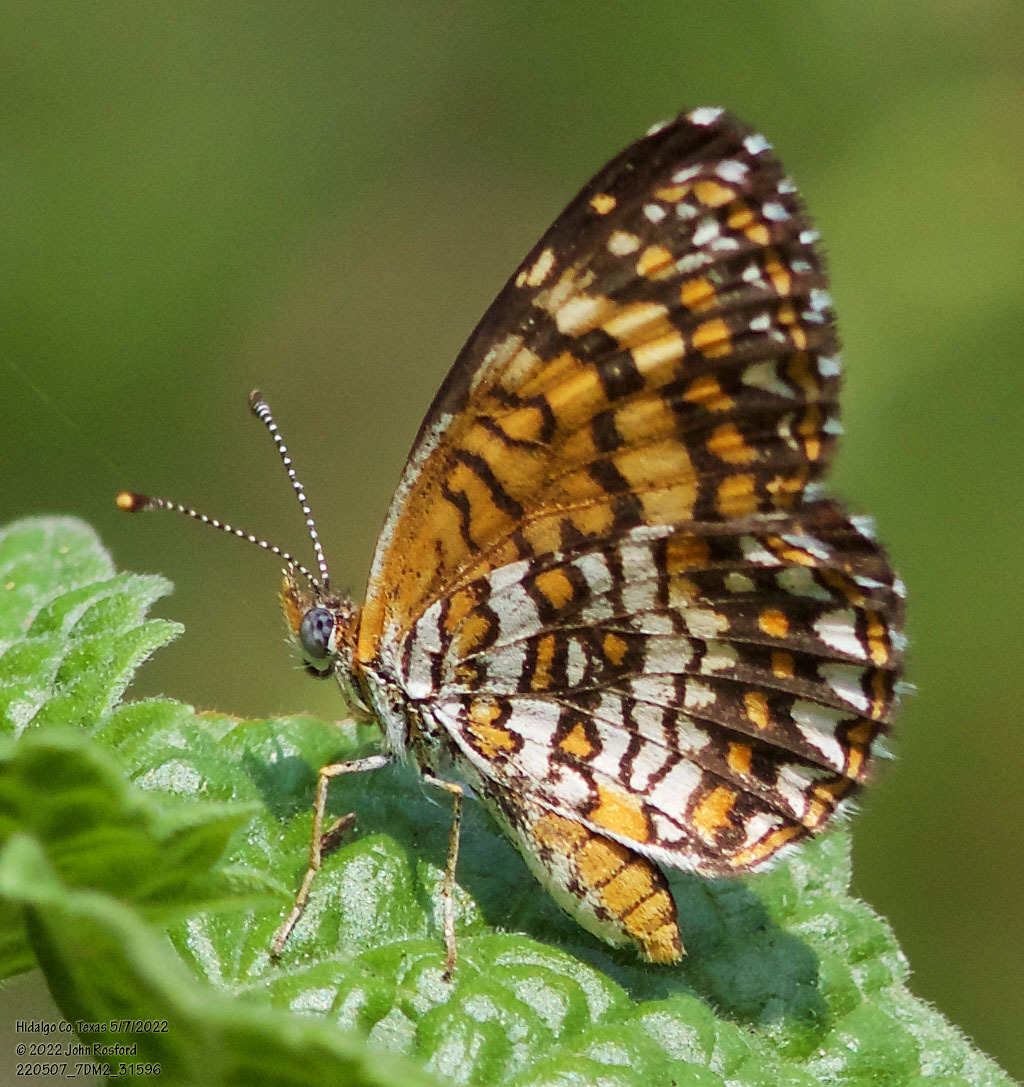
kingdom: Animalia
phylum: Arthropoda
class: Insecta
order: Lepidoptera
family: Nymphalidae
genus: Texola
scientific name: Texola elada
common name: Elada checkerspot
